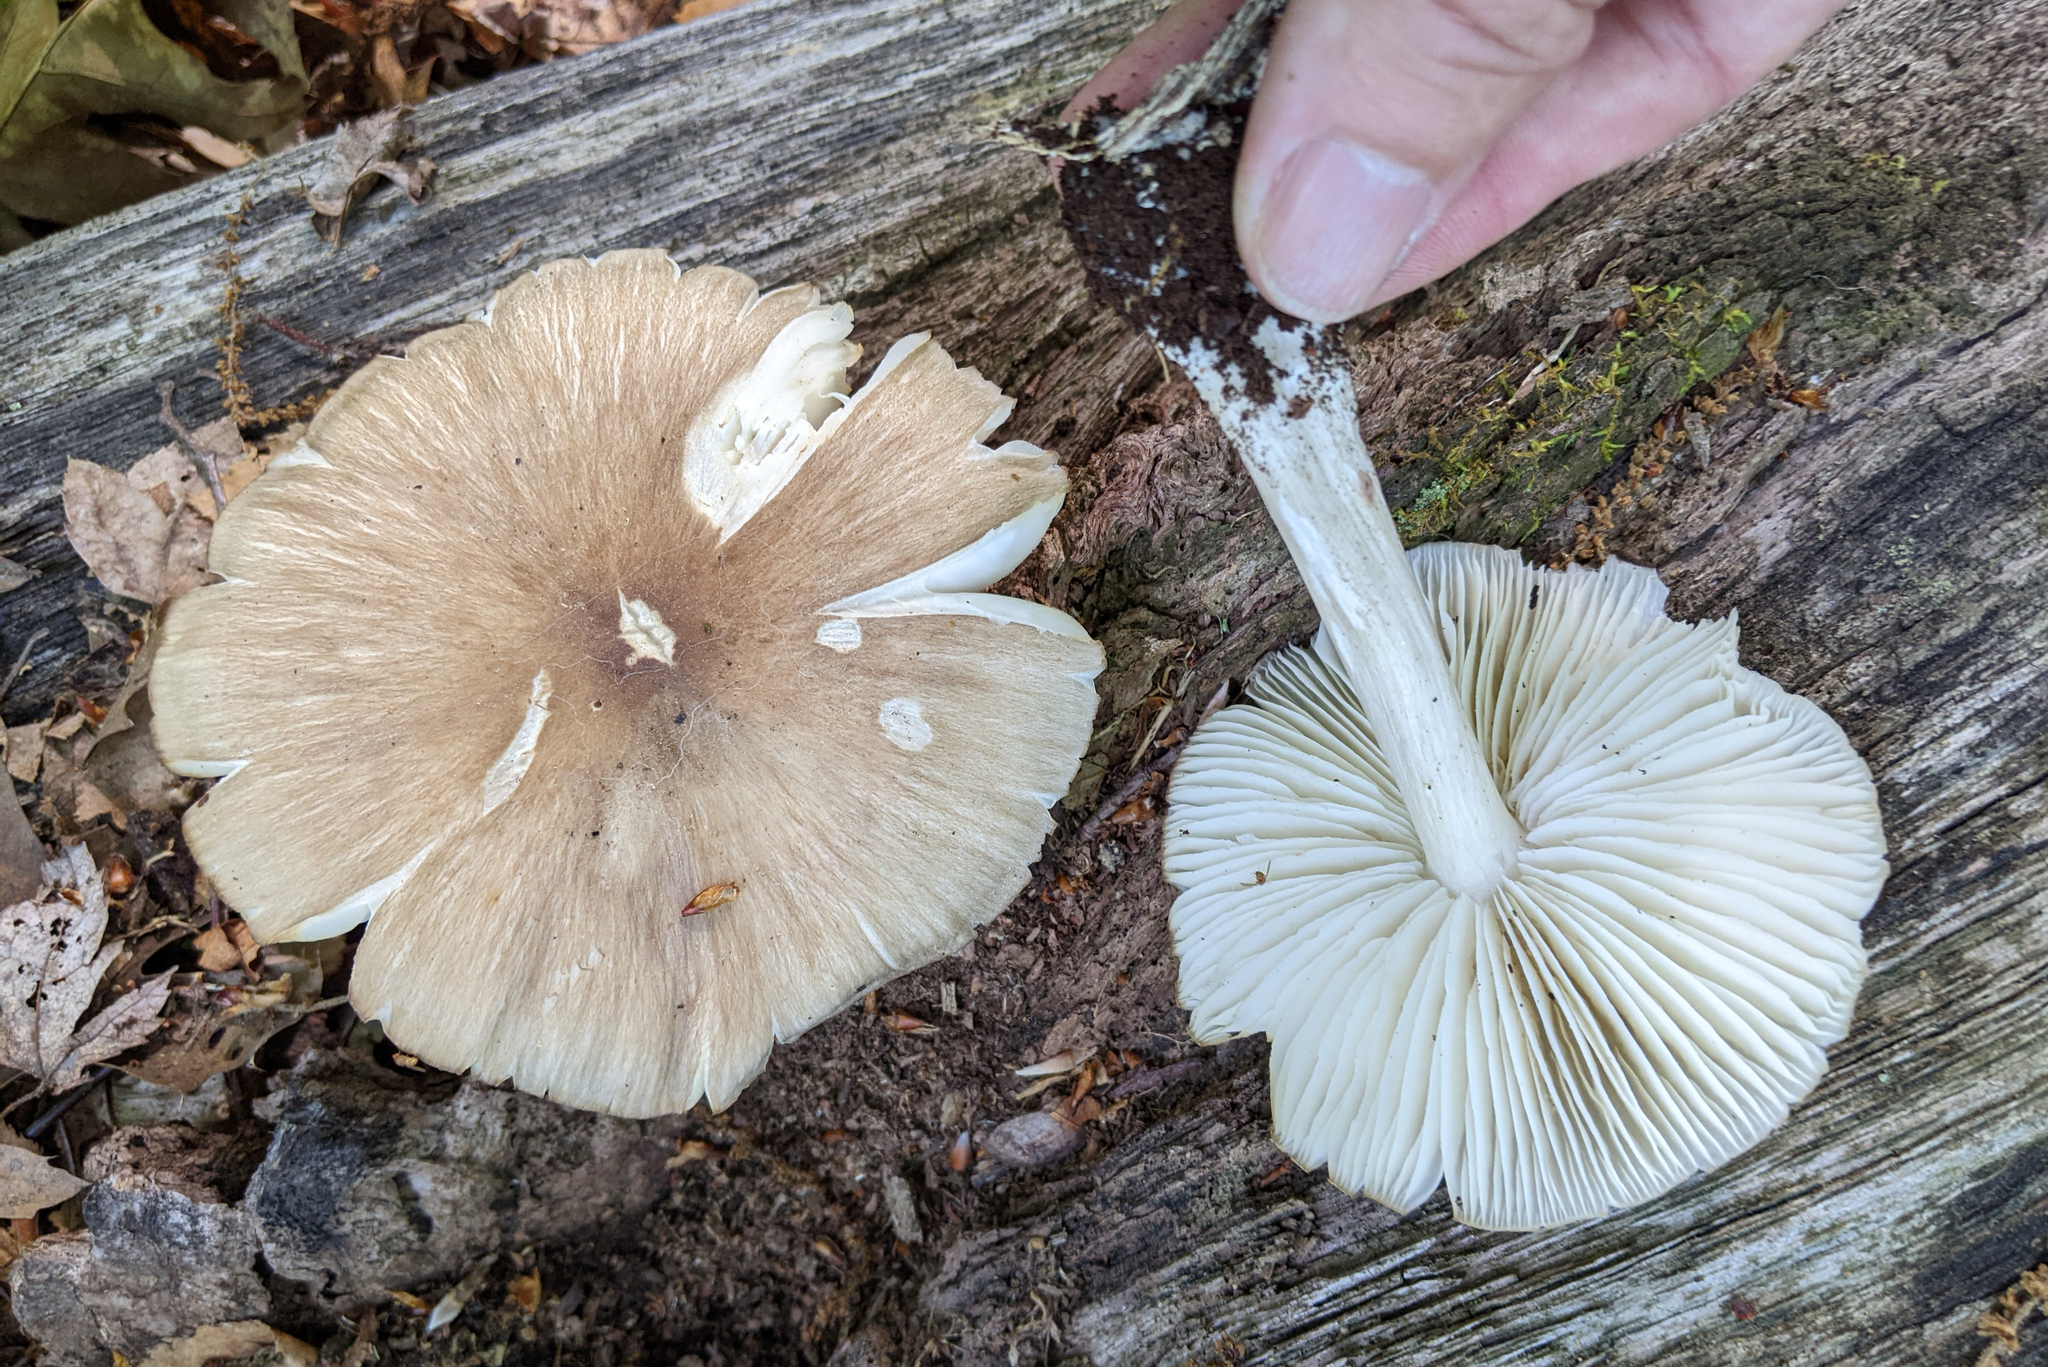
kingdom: Fungi
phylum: Basidiomycota
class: Agaricomycetes
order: Agaricales
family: Tricholomataceae
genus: Megacollybia
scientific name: Megacollybia rodmanii
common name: Eastern american platterful mushroom
